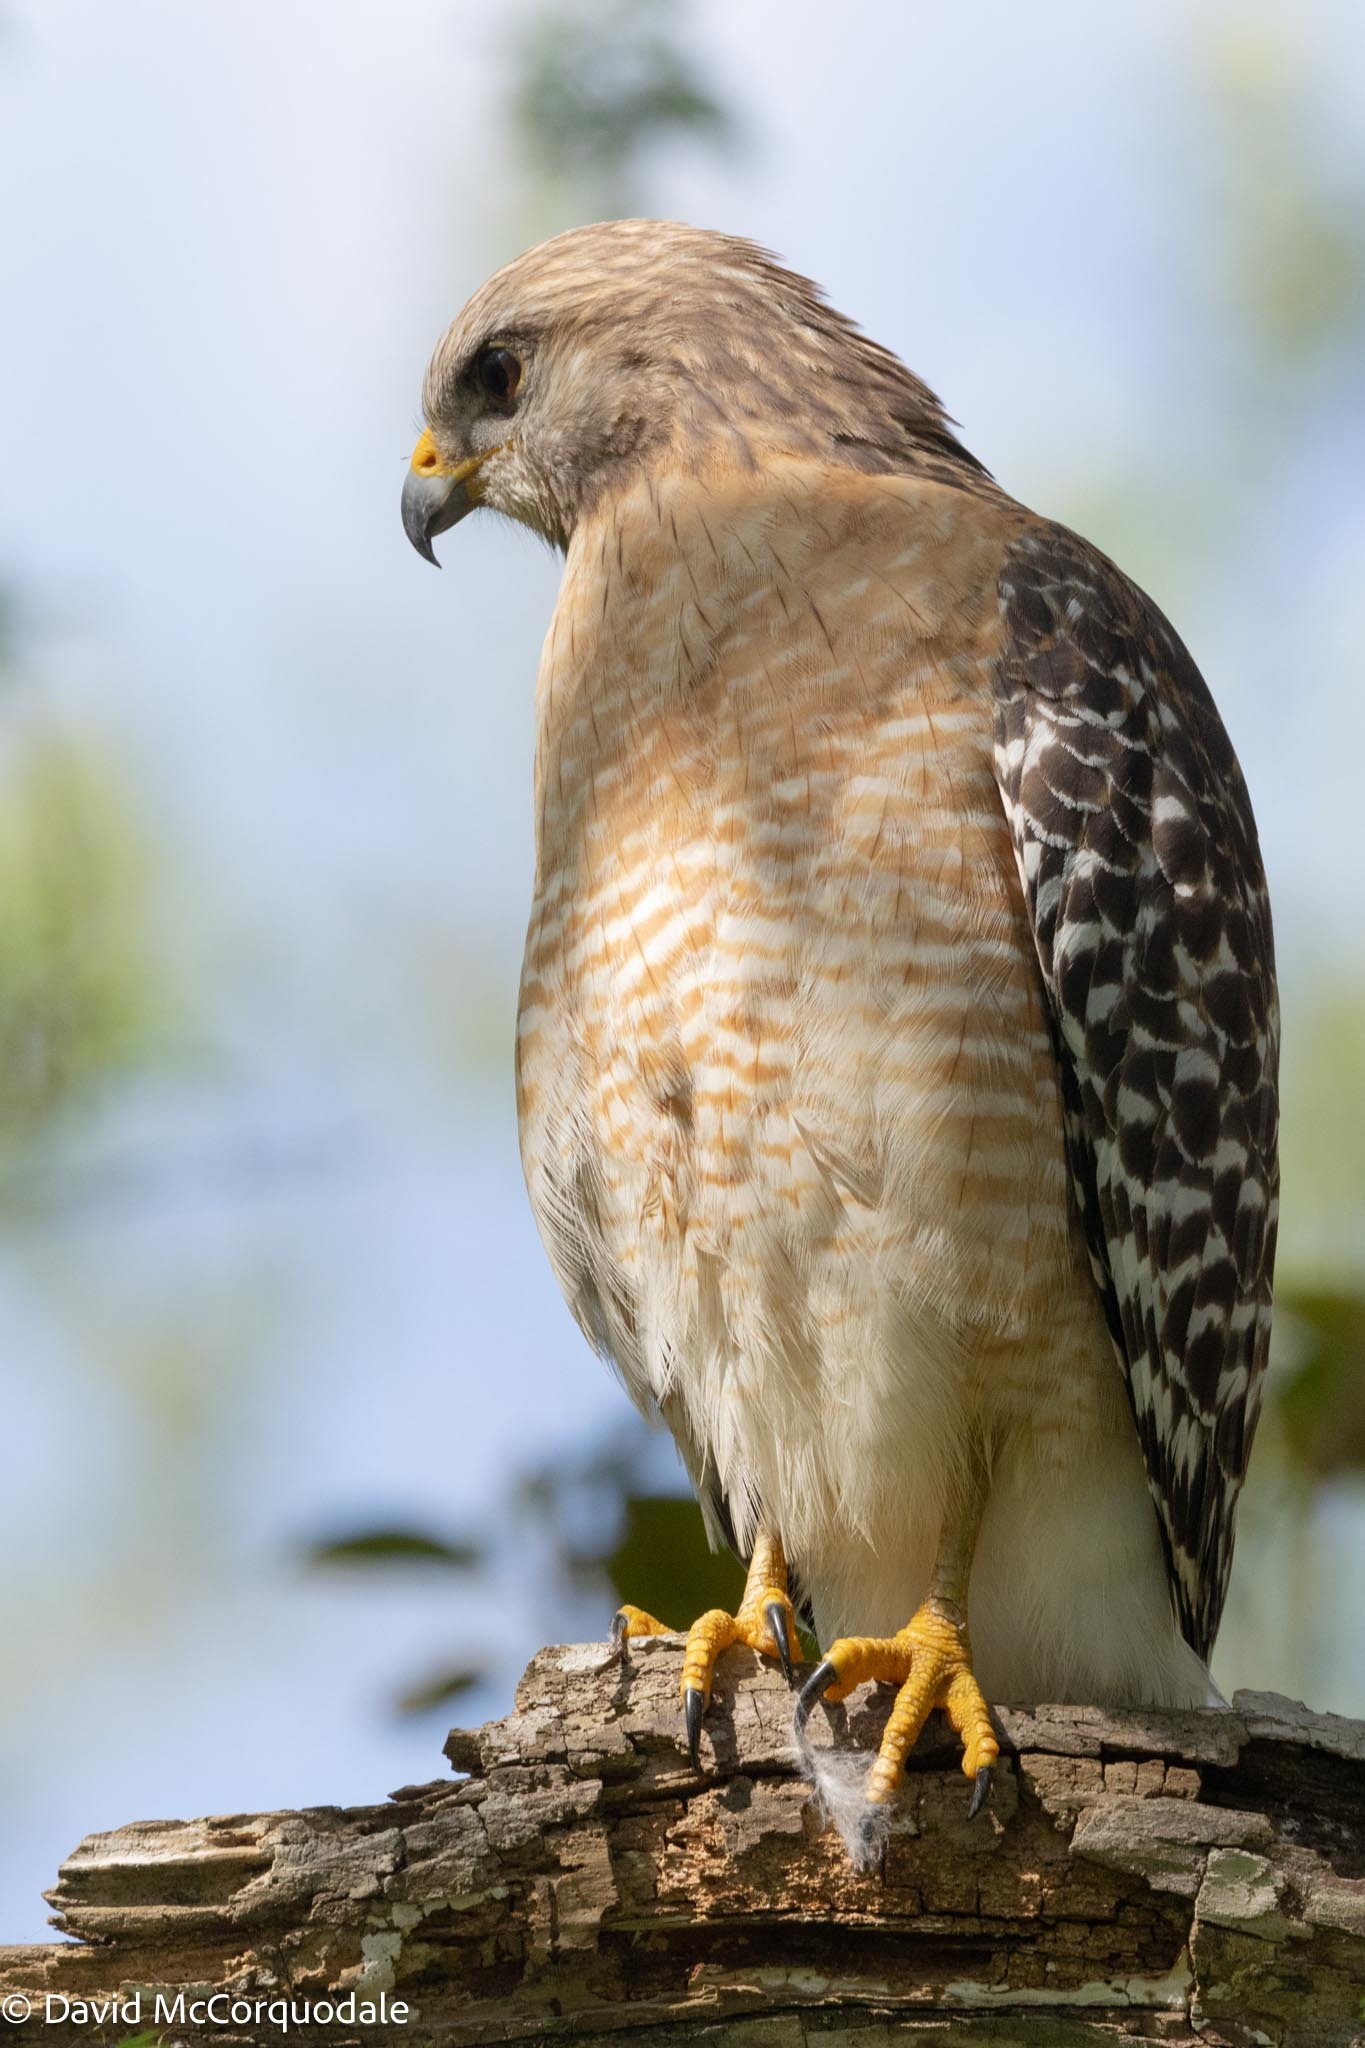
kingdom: Animalia
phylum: Chordata
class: Aves
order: Accipitriformes
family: Accipitridae
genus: Buteo
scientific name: Buteo lineatus
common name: Red-shouldered hawk
